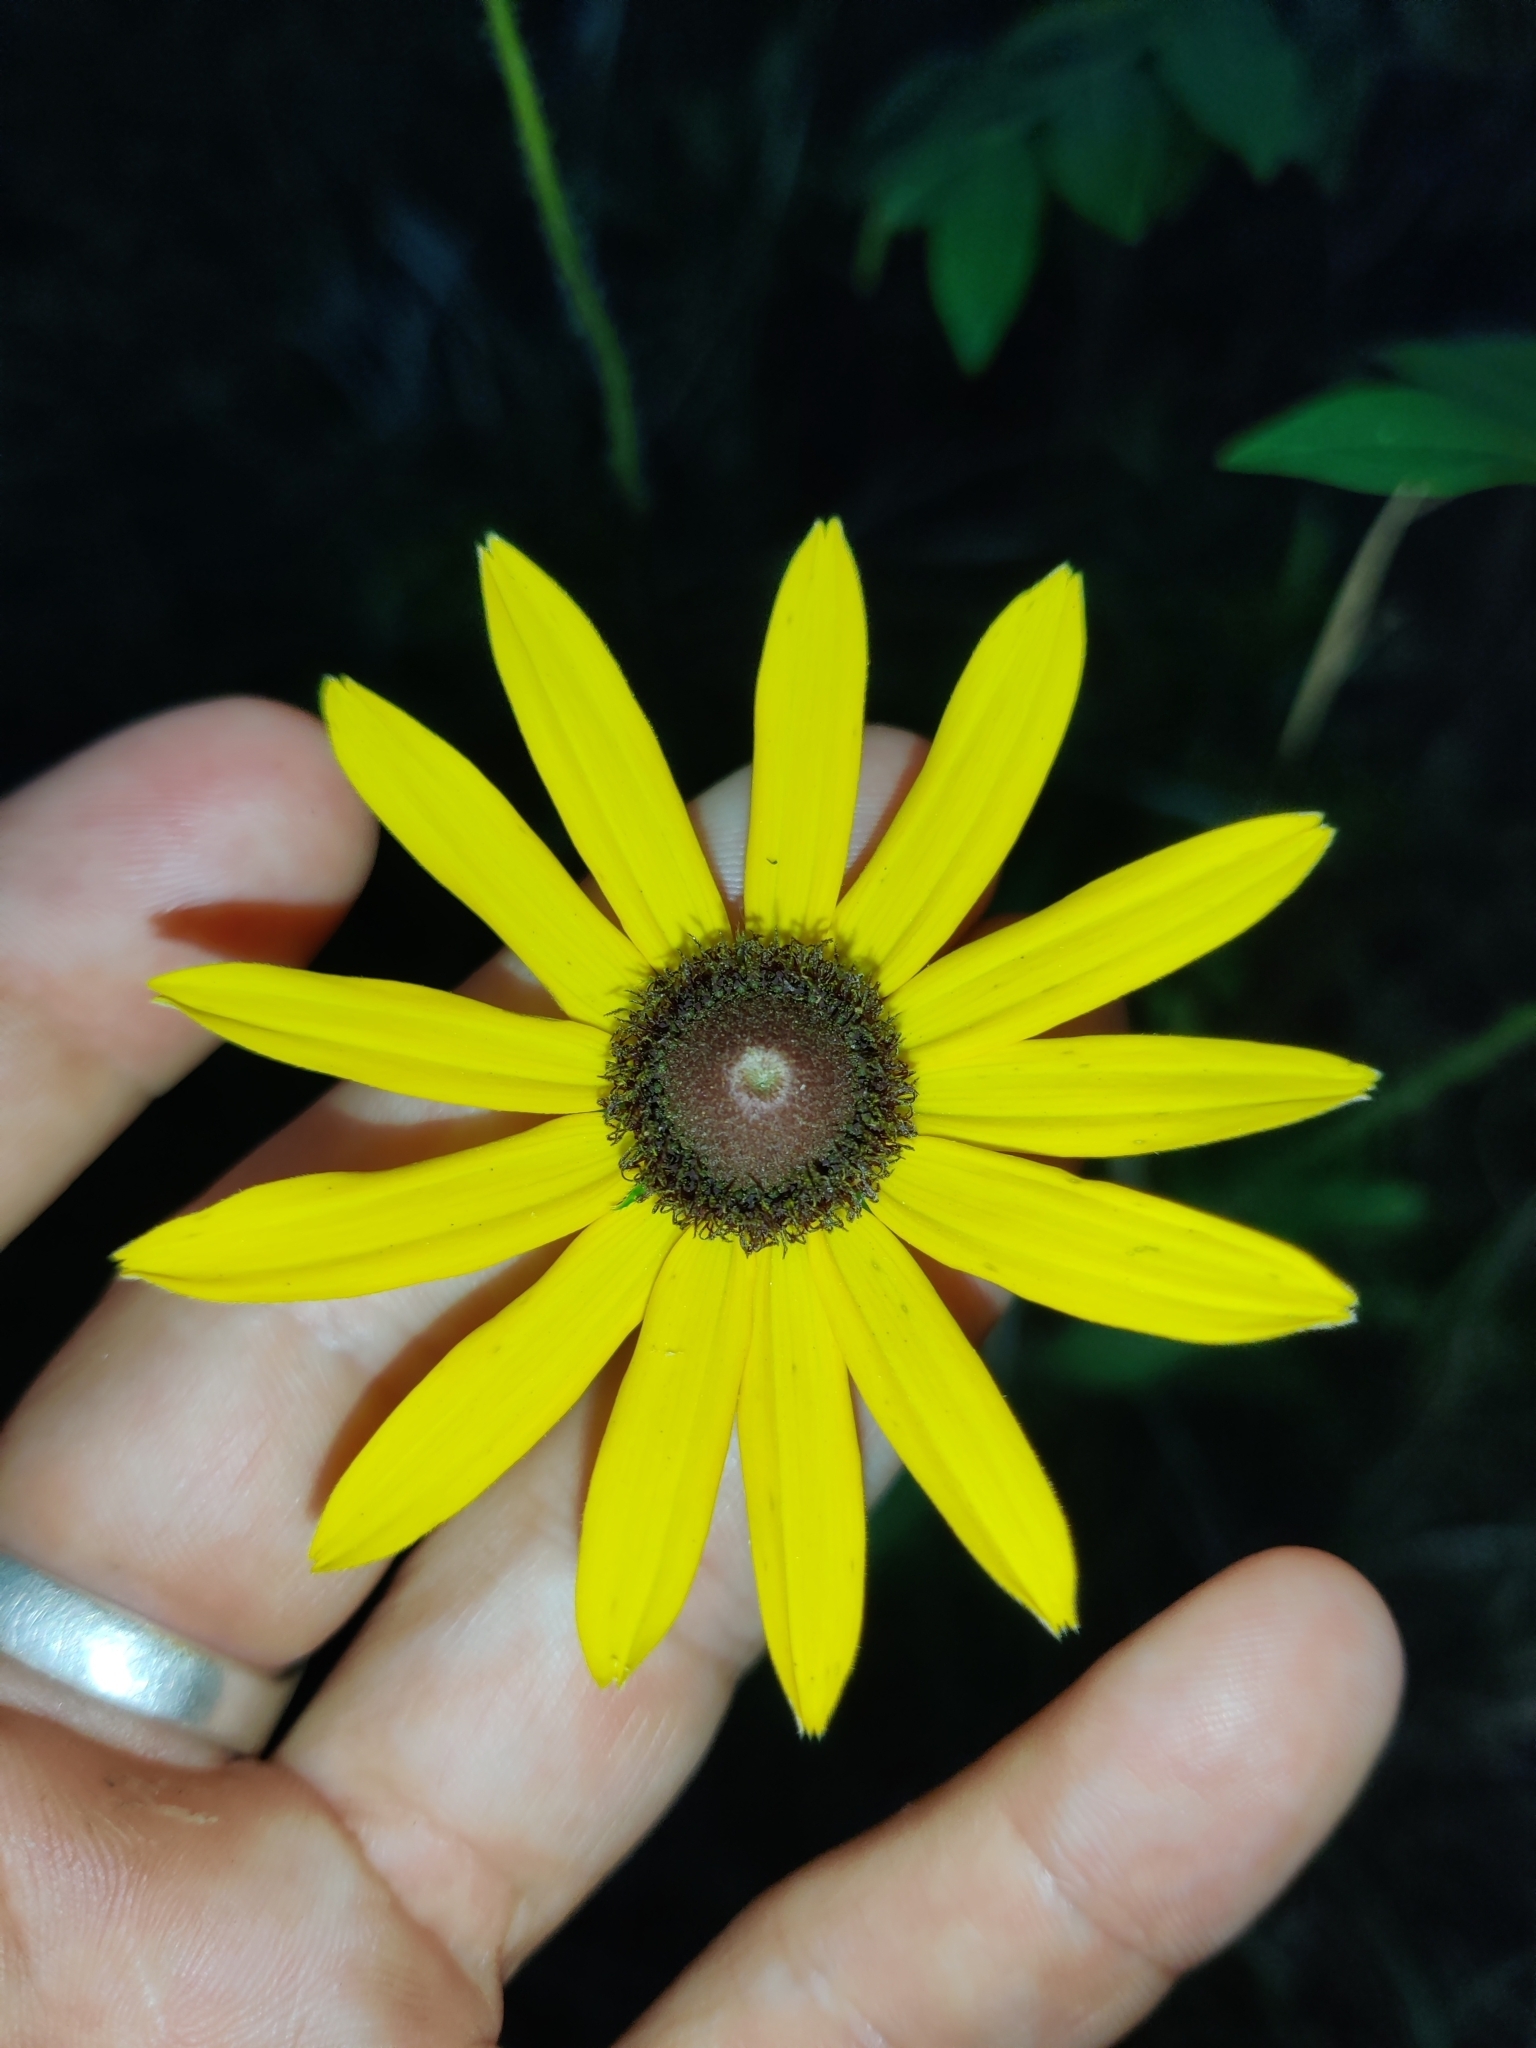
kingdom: Plantae
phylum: Tracheophyta
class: Magnoliopsida
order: Asterales
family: Asteraceae
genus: Rudbeckia
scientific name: Rudbeckia hirta
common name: Black-eyed-susan
